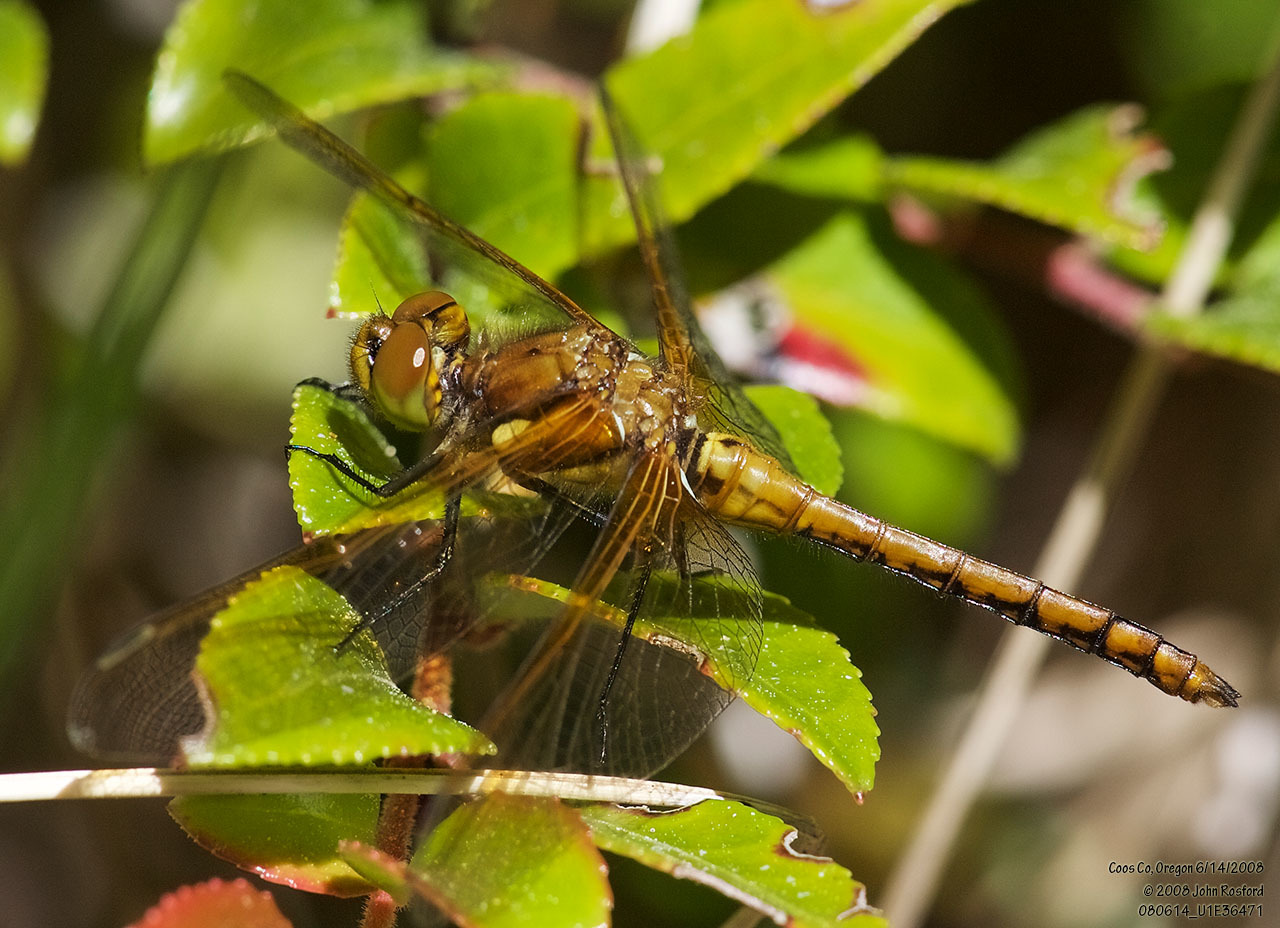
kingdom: Animalia
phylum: Arthropoda
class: Insecta
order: Odonata
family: Libellulidae
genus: Sympetrum
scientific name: Sympetrum madidum
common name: Red-veined meadowhawk
